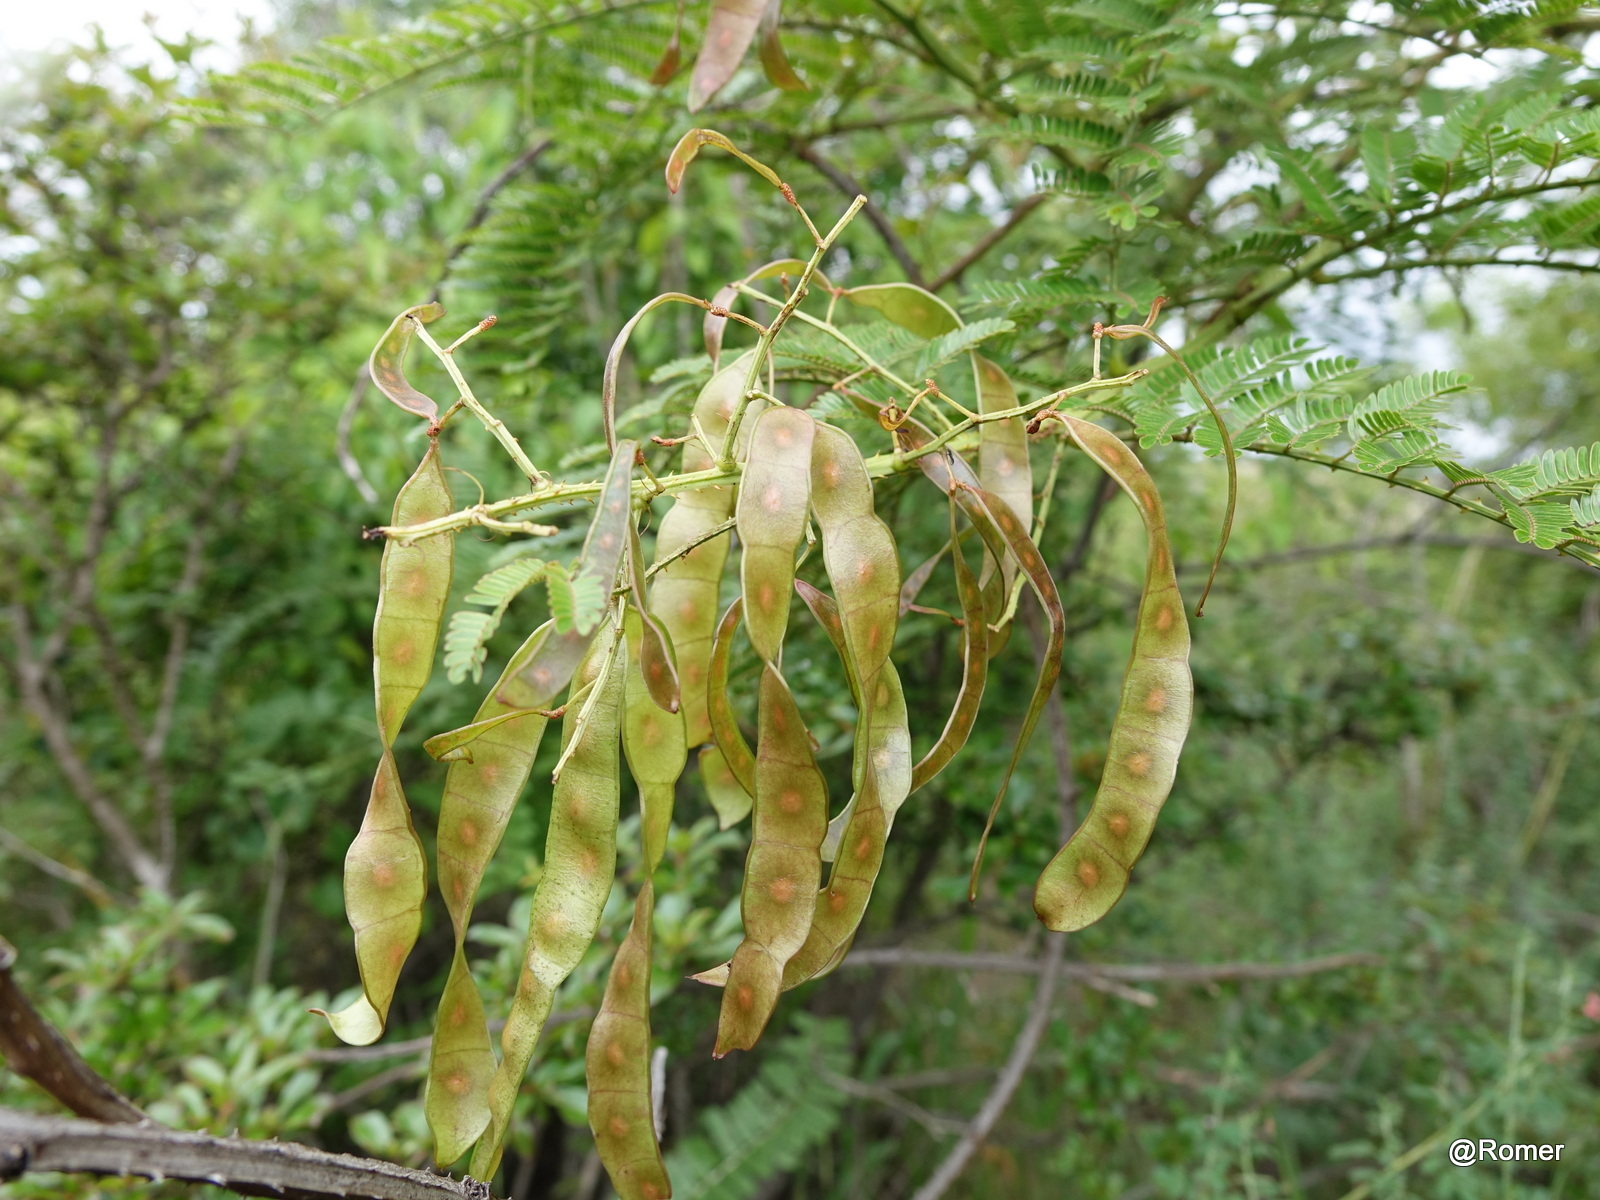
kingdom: Plantae
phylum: Tracheophyta
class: Magnoliopsida
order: Fabales
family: Fabaceae
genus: Mimosa
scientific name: Mimosa suffruticosa
